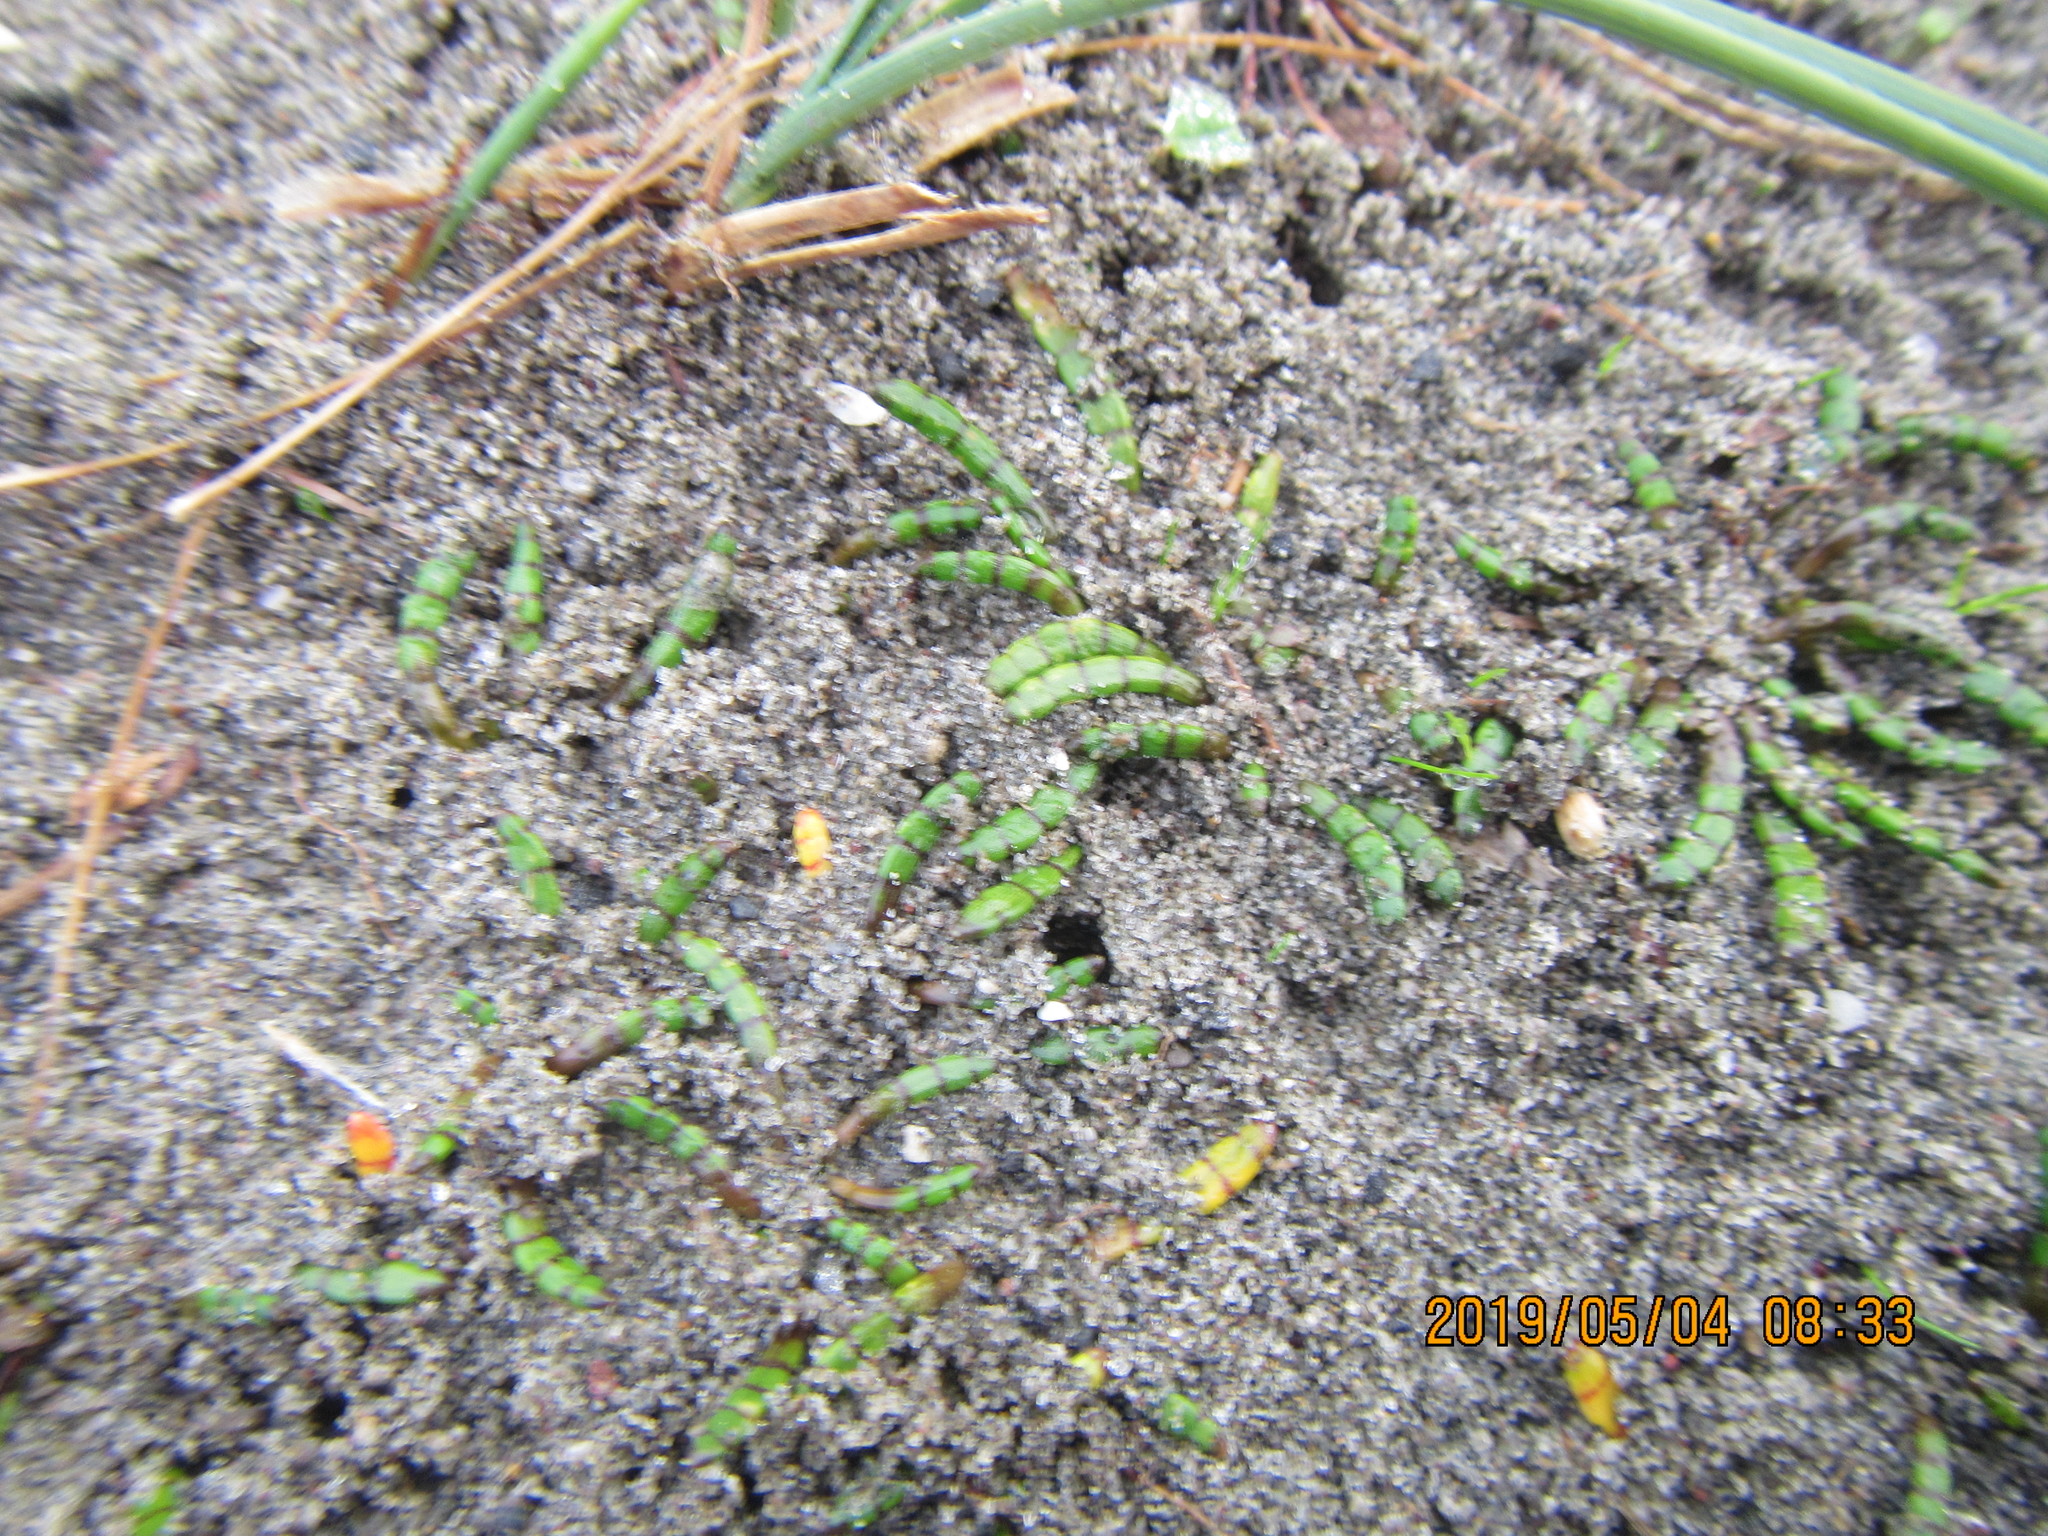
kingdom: Plantae
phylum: Tracheophyta
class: Magnoliopsida
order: Apiales
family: Apiaceae
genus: Lilaeopsis
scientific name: Lilaeopsis novae-zelandiae
